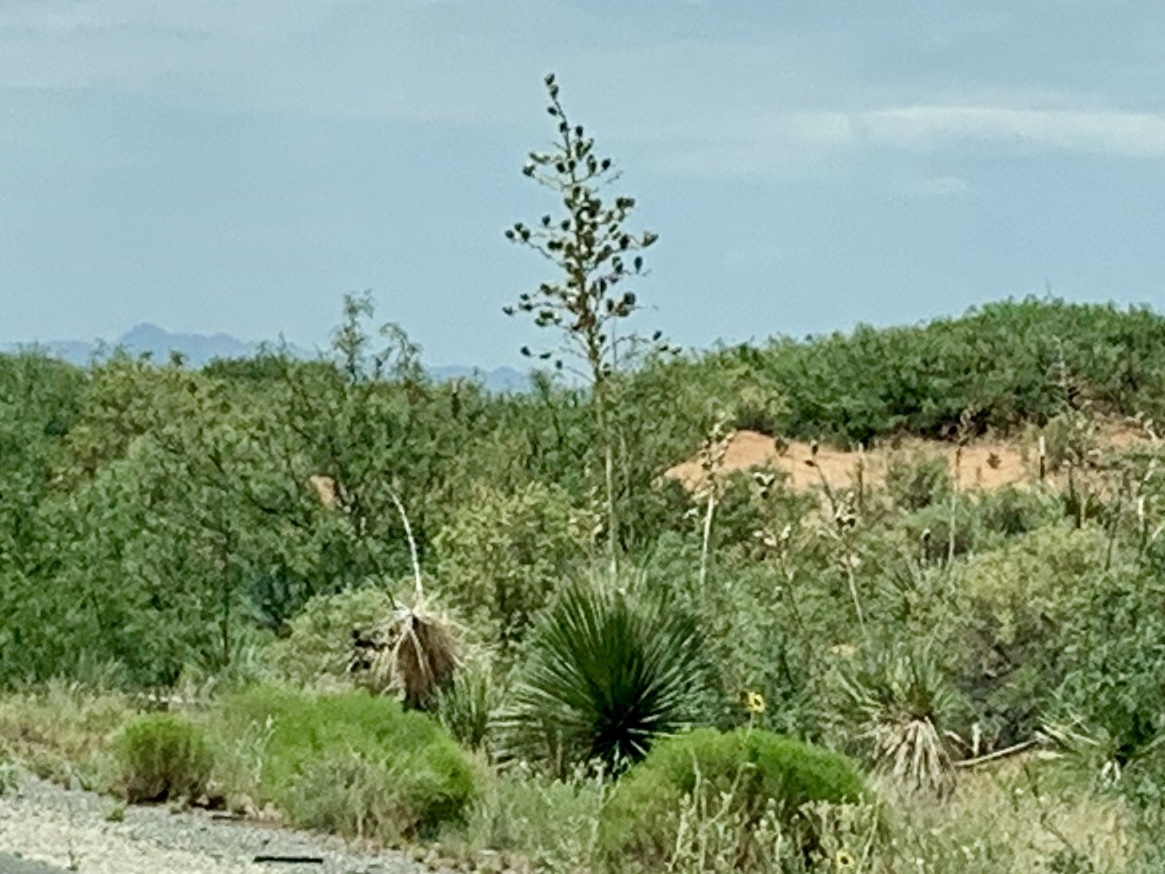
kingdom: Plantae
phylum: Tracheophyta
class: Liliopsida
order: Asparagales
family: Asparagaceae
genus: Yucca
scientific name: Yucca elata
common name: Palmella
